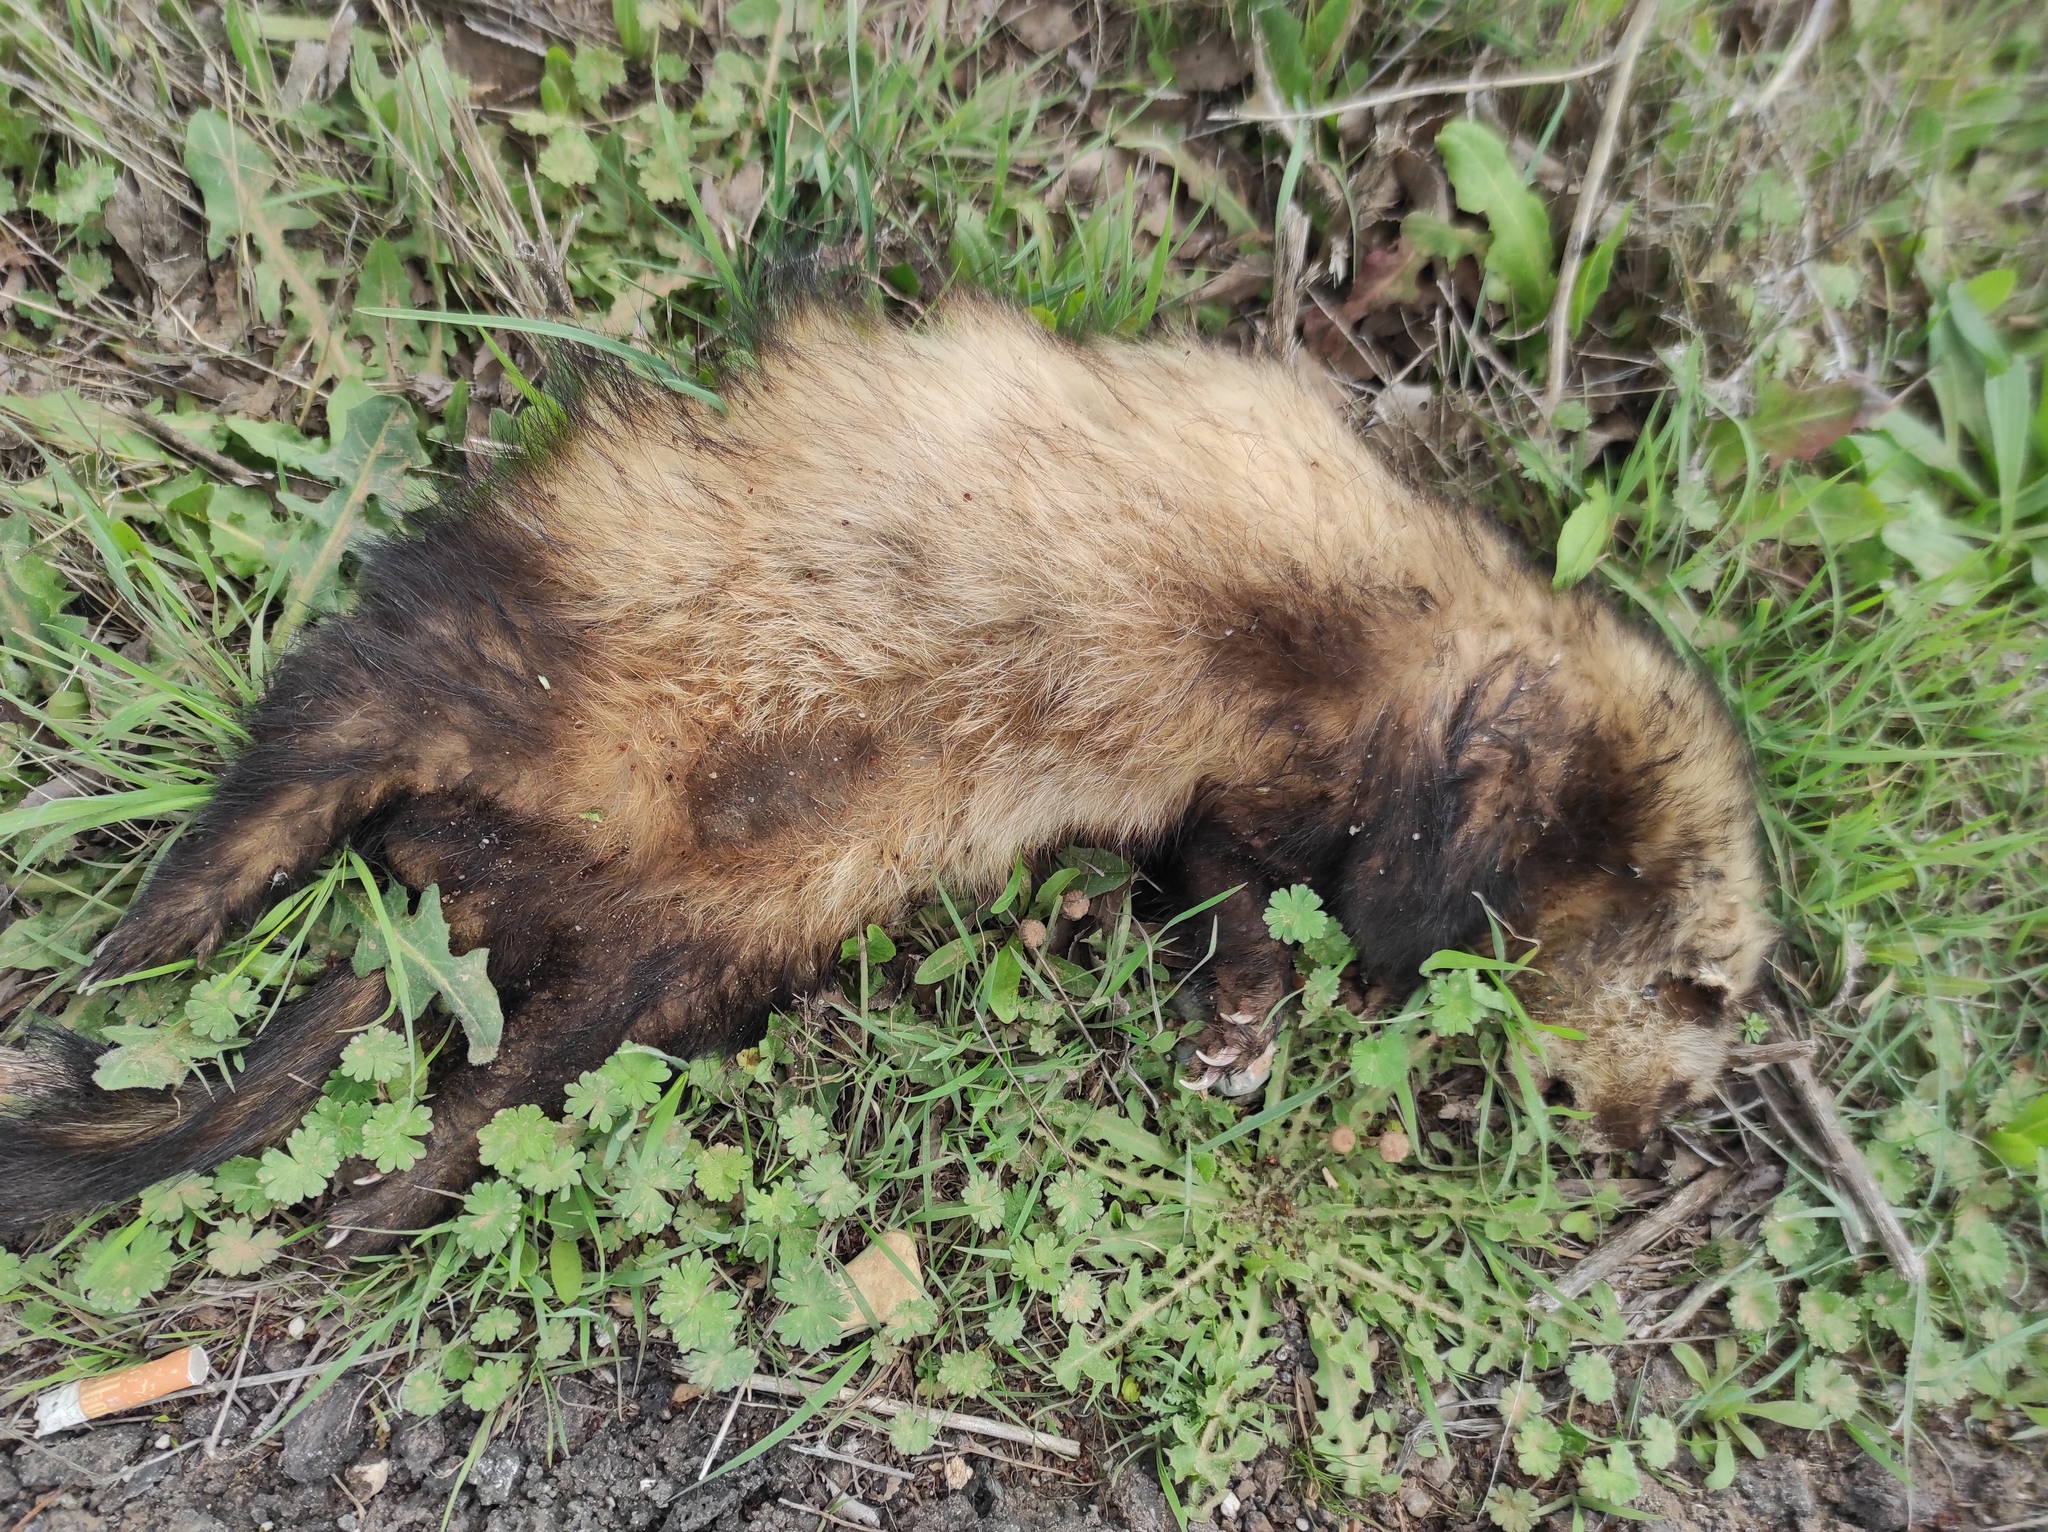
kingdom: Animalia
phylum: Chordata
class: Mammalia
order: Carnivora
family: Mustelidae
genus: Mustela
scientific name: Mustela putorius
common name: European polecat
